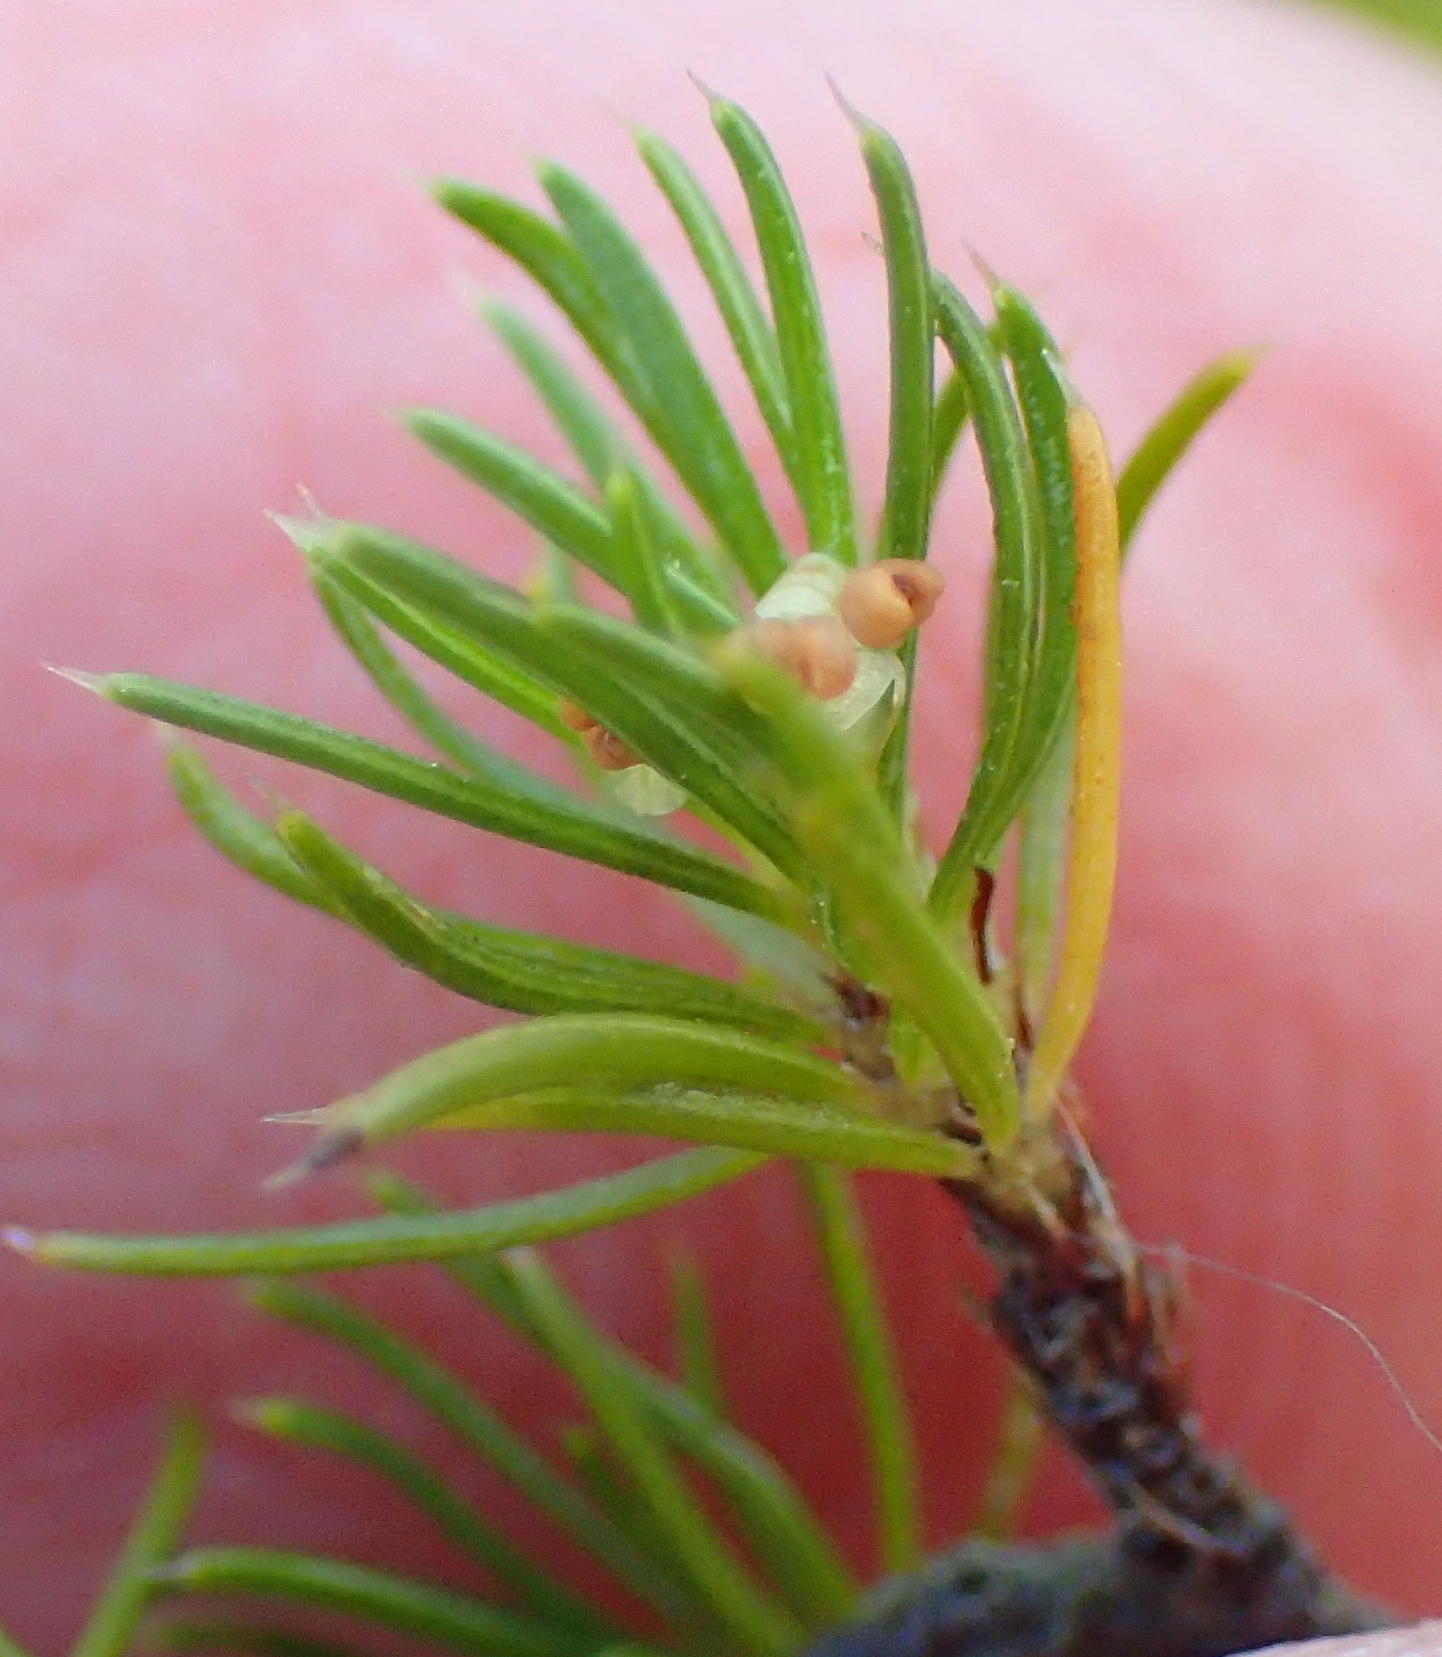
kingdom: Plantae
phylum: Tracheophyta
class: Magnoliopsida
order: Rosales
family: Rosaceae
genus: Cliffortia
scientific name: Cliffortia paucistaminea
